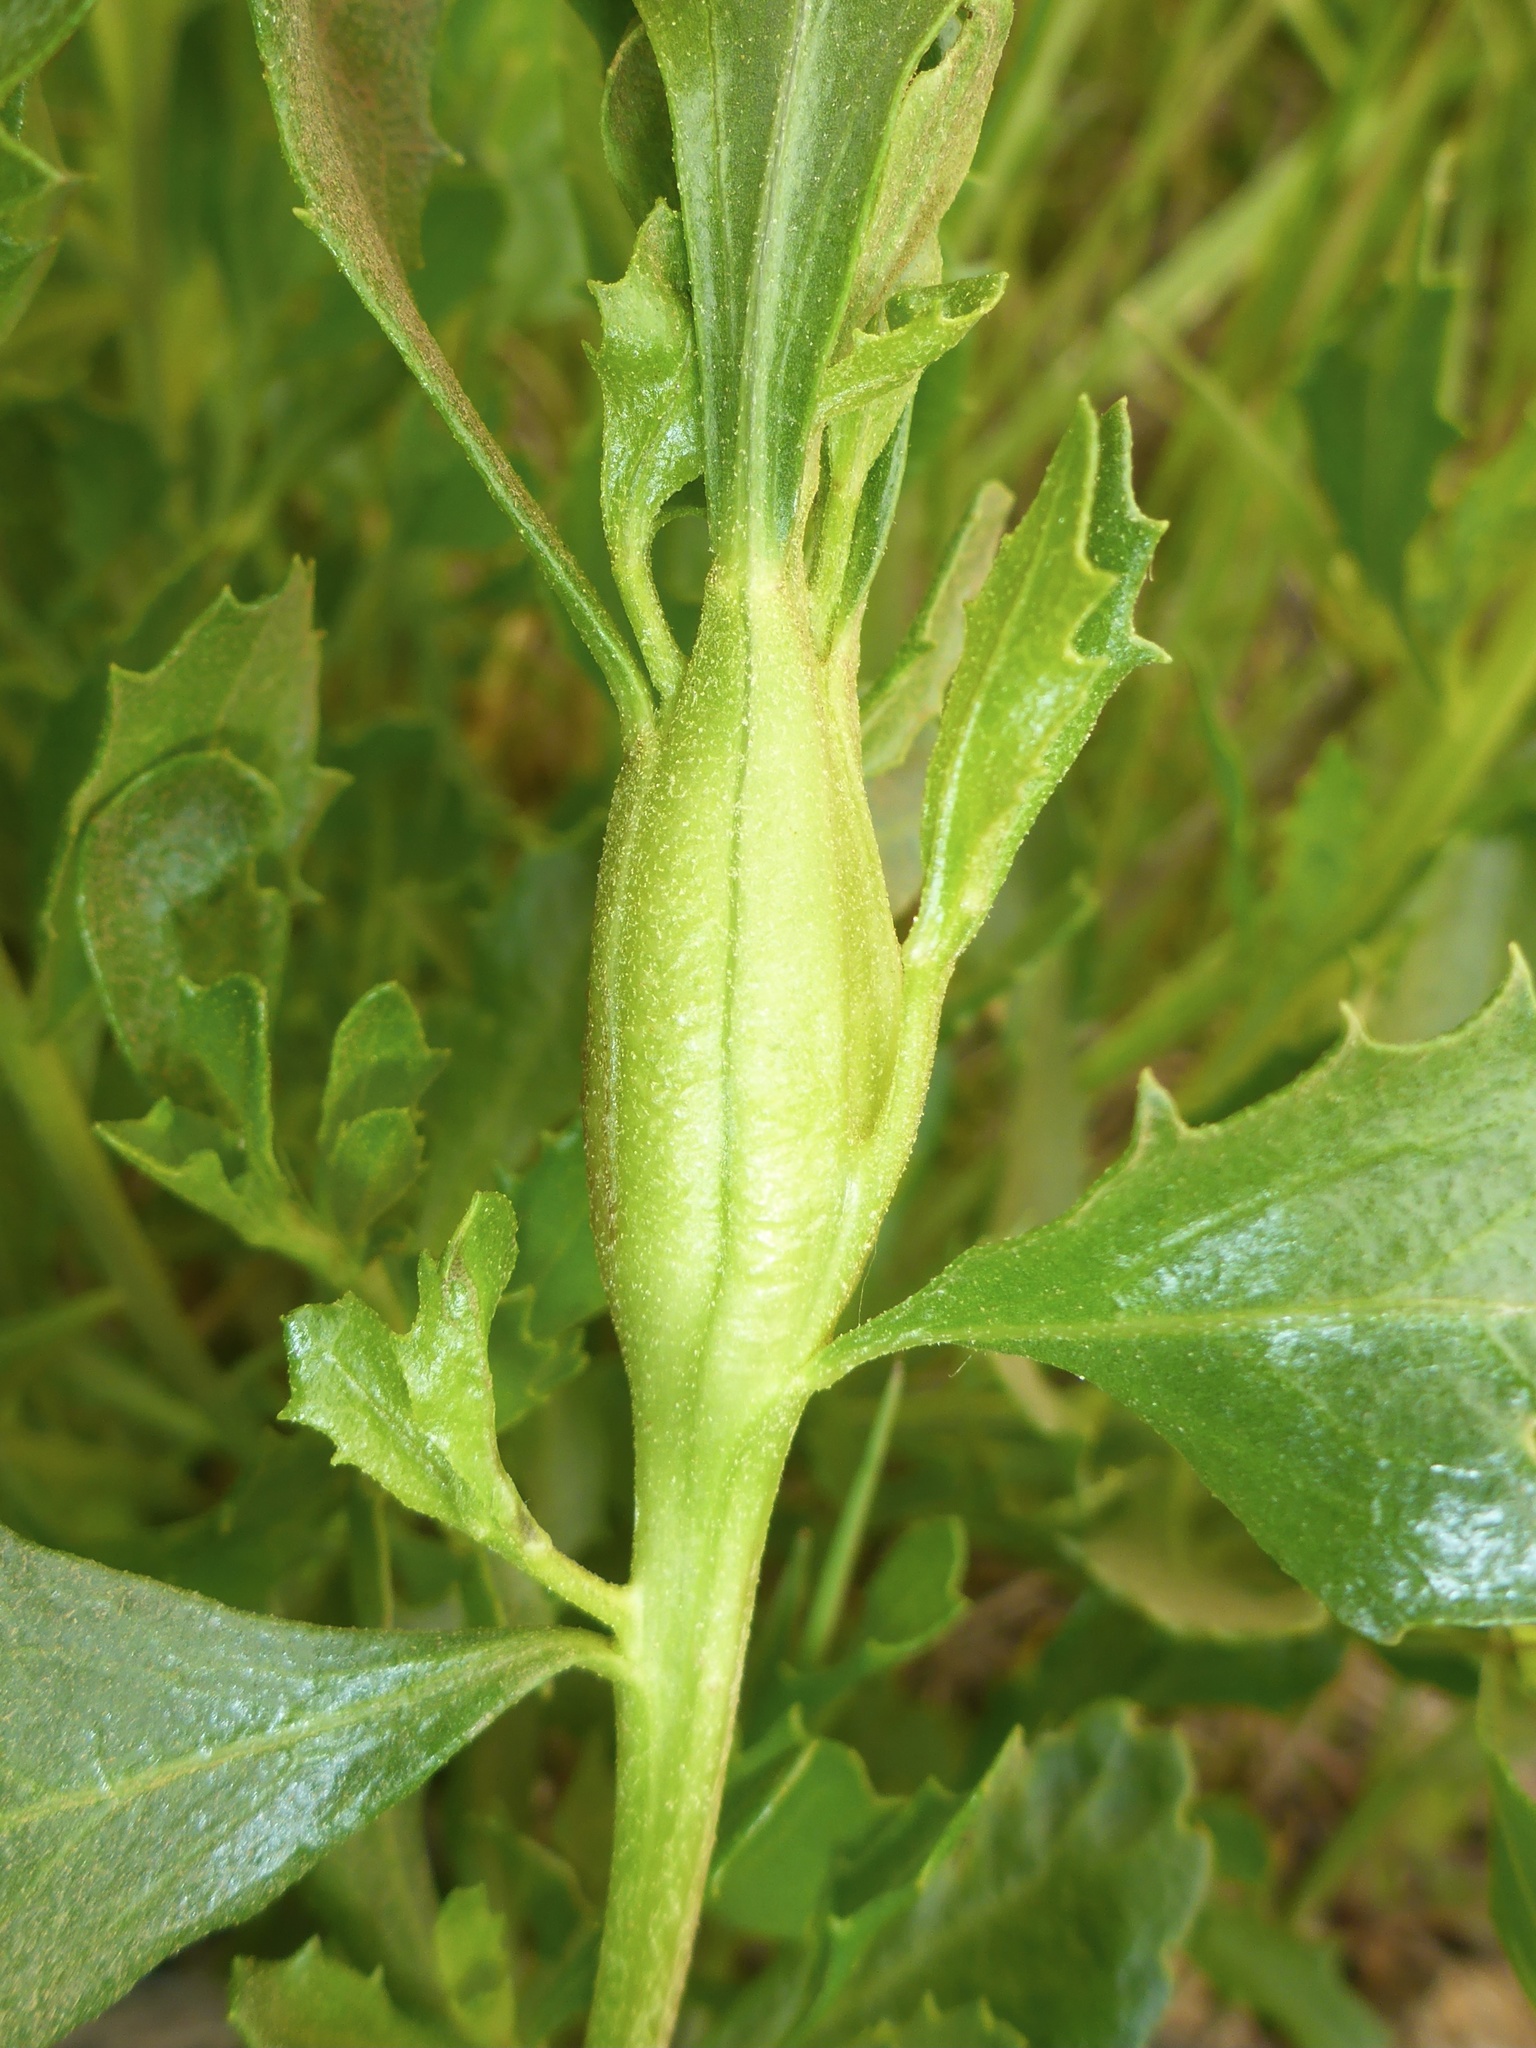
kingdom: Animalia
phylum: Arthropoda
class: Insecta
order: Lepidoptera
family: Gelechiidae
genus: Gnorimoschema
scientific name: Gnorimoschema baccharisella
